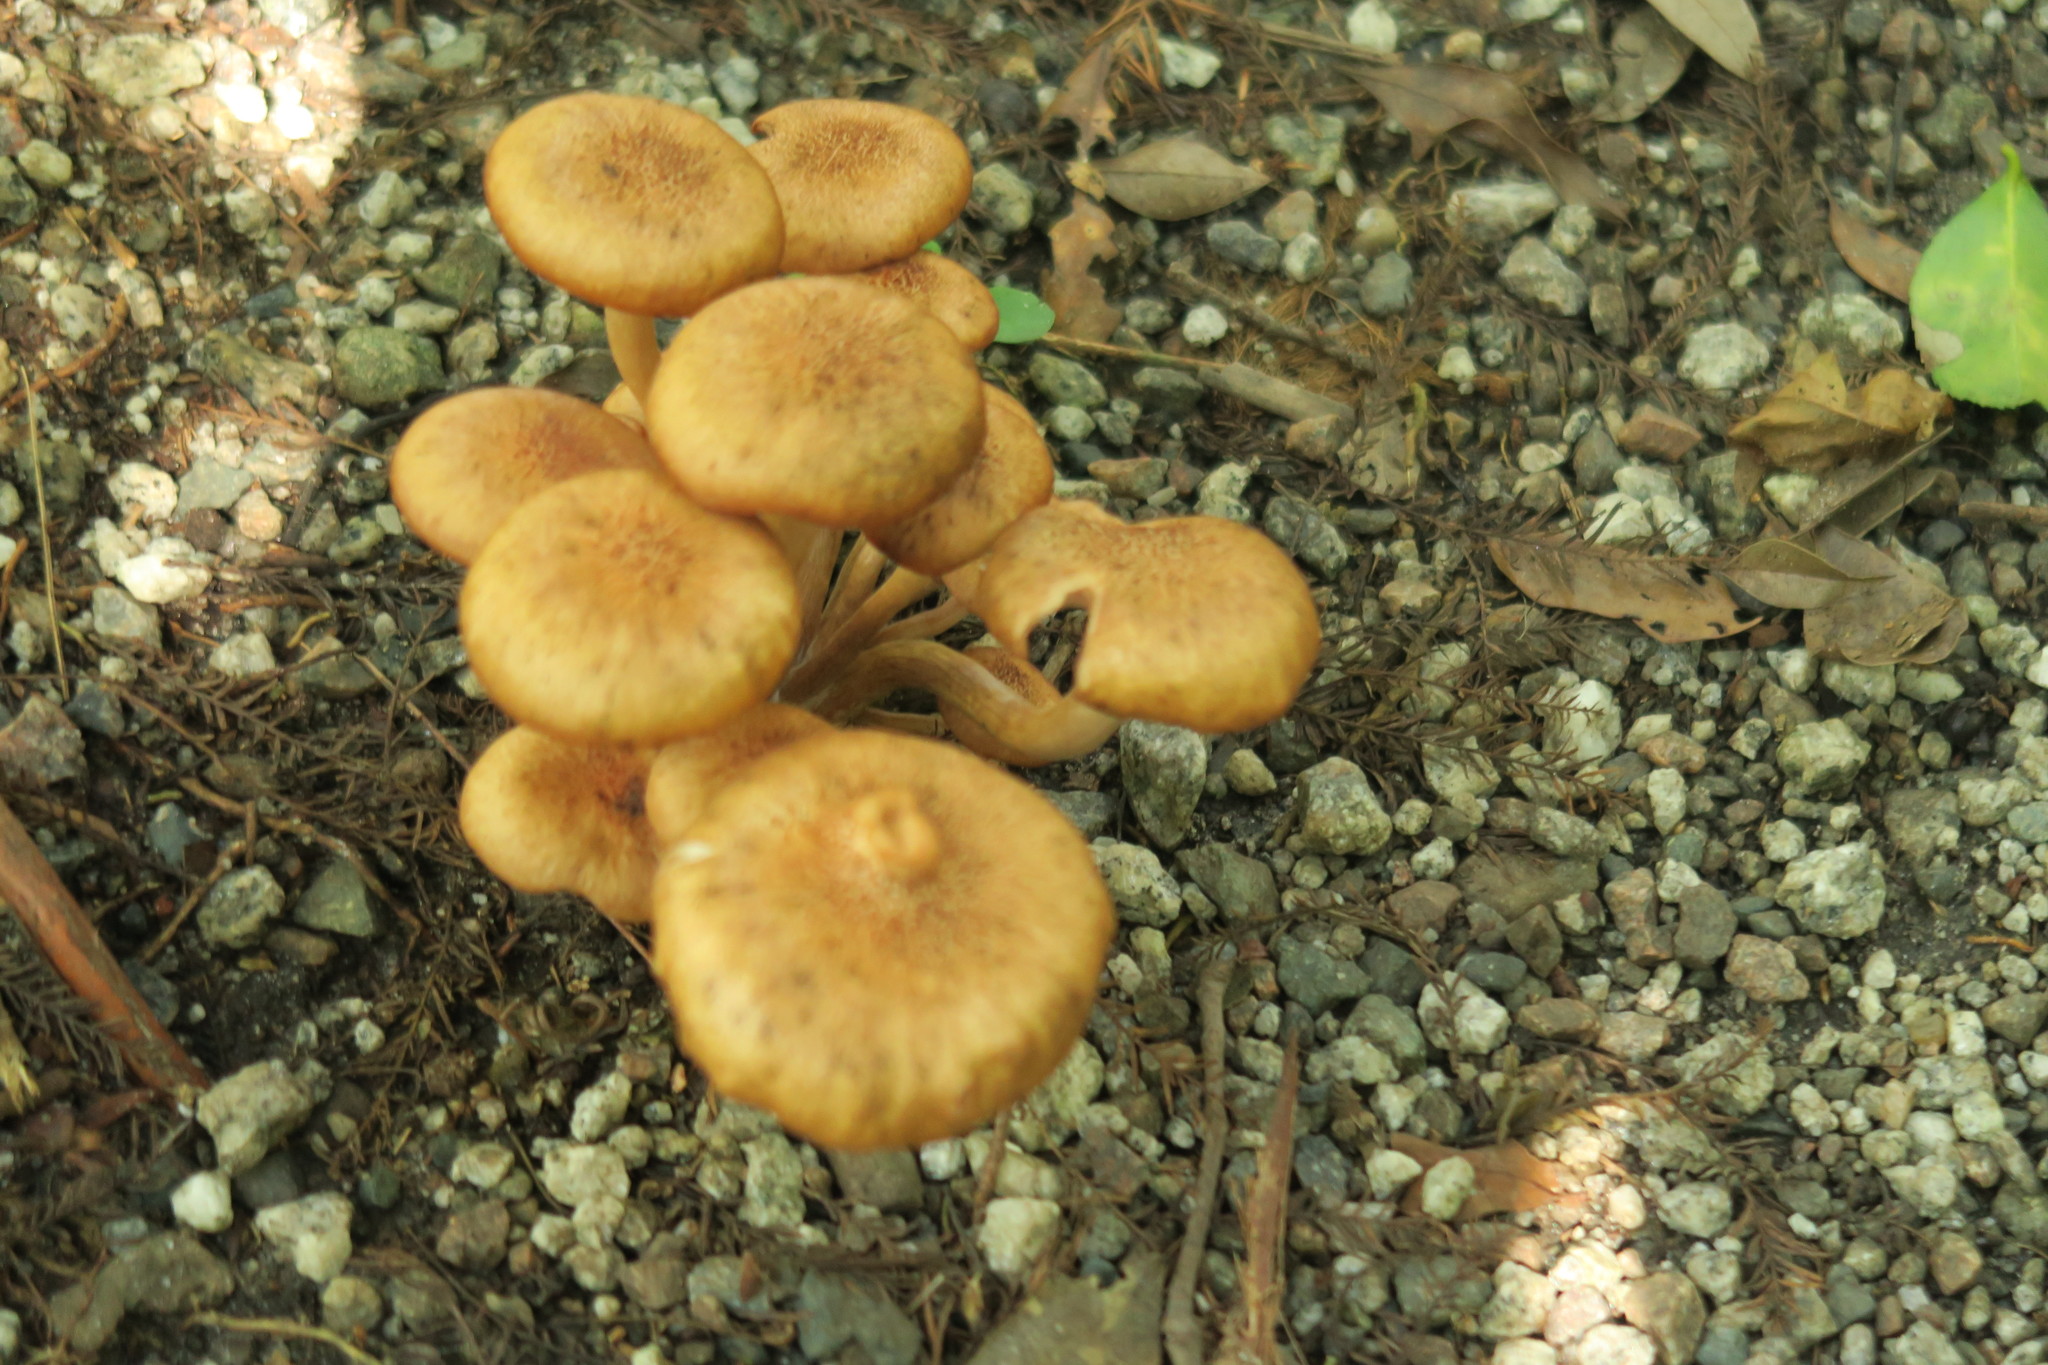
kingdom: Fungi
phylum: Basidiomycota
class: Agaricomycetes
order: Agaricales
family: Physalacriaceae
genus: Desarmillaria
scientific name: Desarmillaria caespitosa
